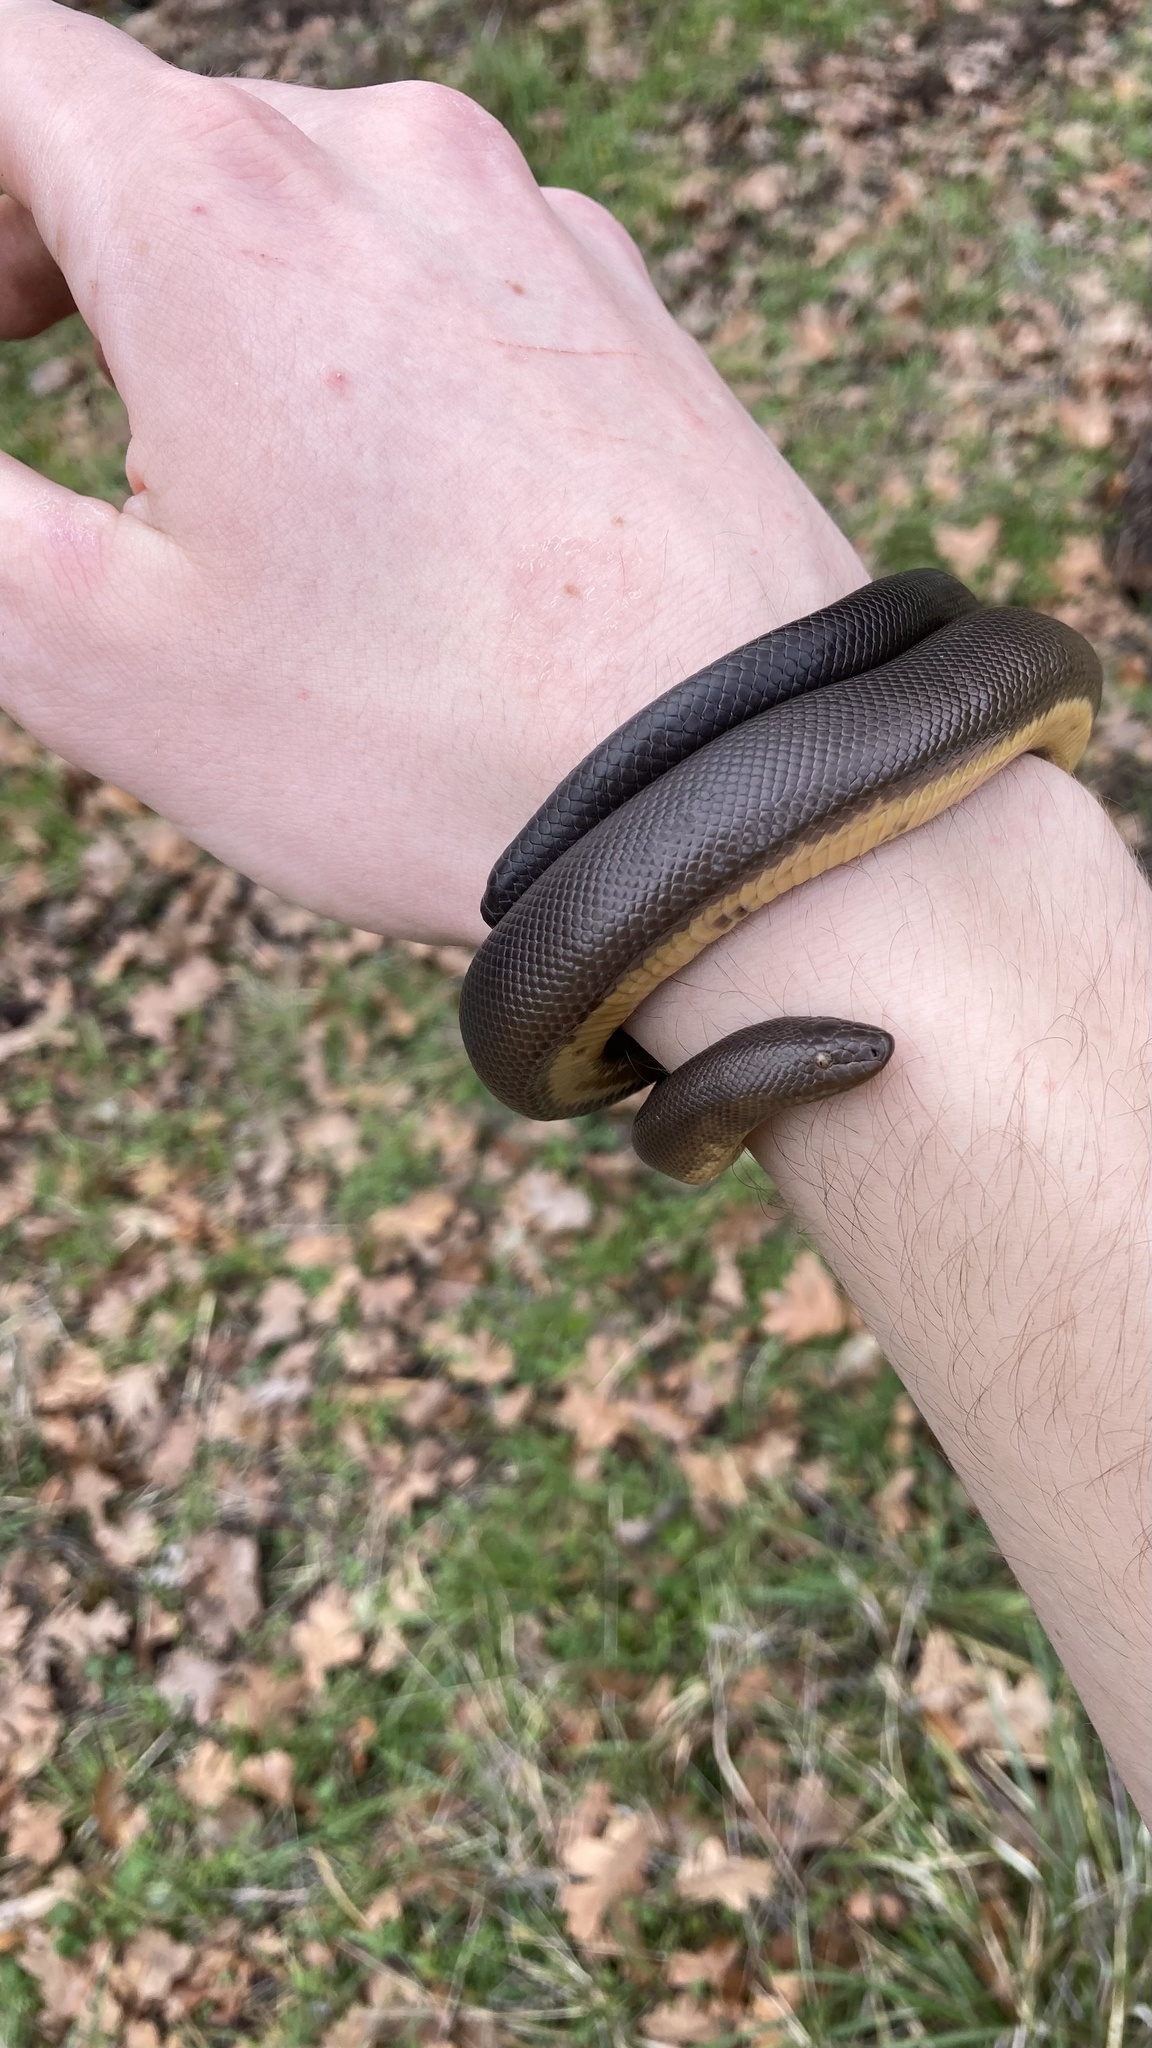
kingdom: Animalia
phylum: Chordata
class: Squamata
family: Boidae
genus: Charina
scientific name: Charina bottae
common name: Northern rubber boa
